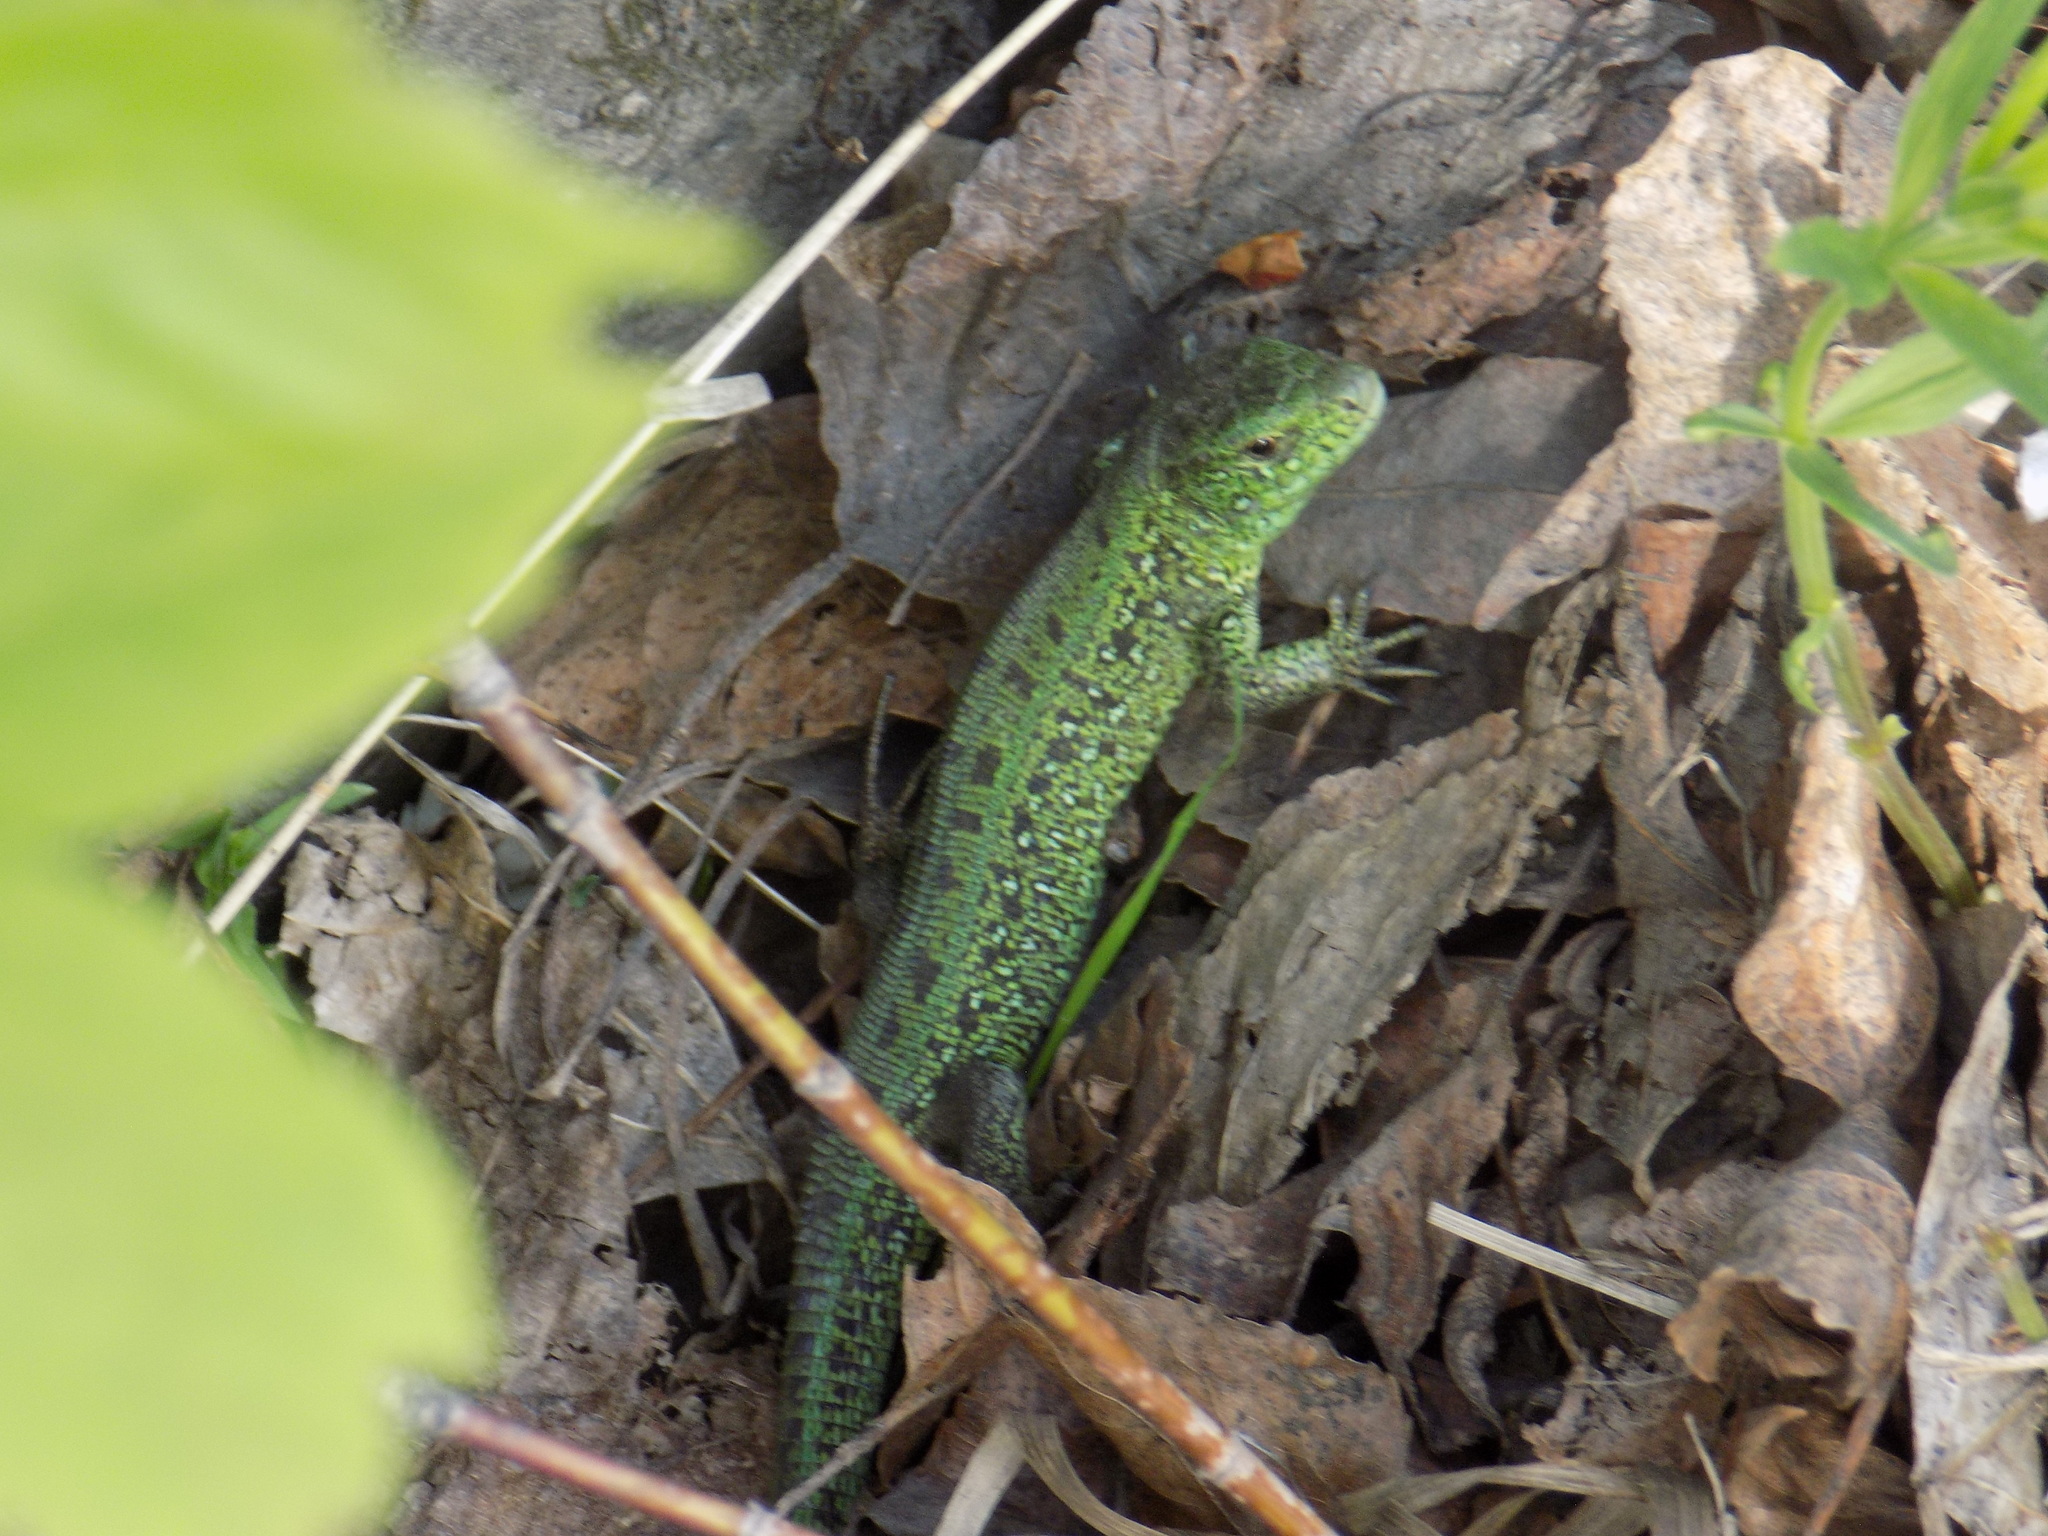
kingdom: Animalia
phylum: Chordata
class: Squamata
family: Lacertidae
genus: Lacerta
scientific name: Lacerta agilis
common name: Sand lizard
